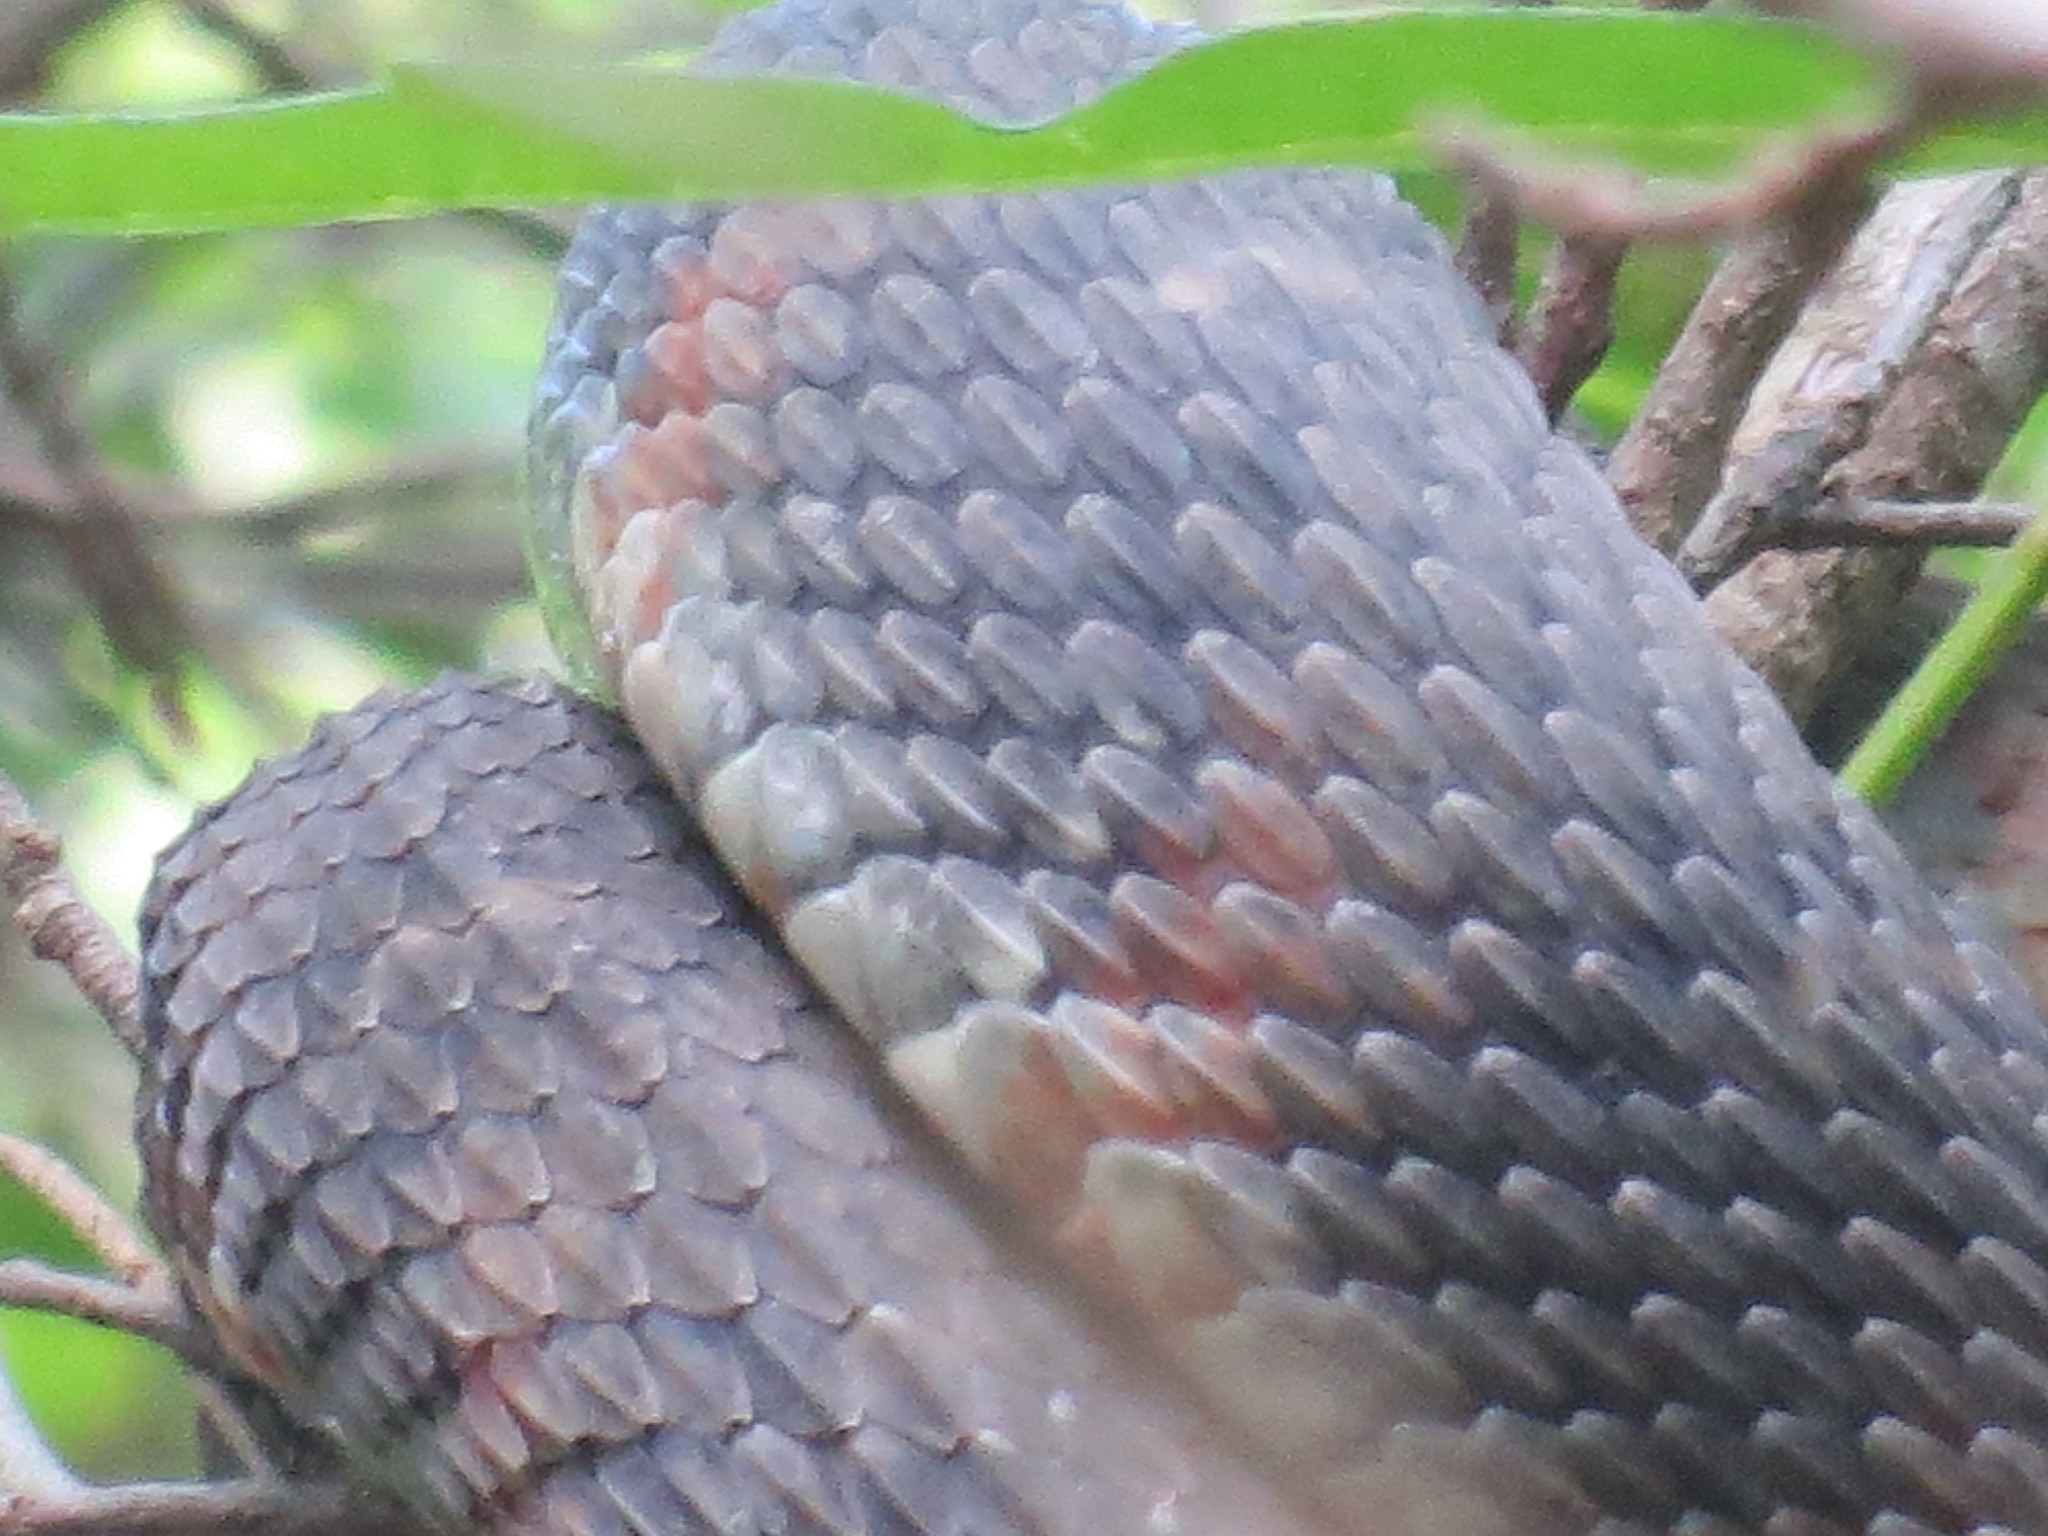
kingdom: Animalia
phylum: Chordata
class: Squamata
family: Colubridae
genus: Nerodia
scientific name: Nerodia fasciata
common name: Southern water snake
